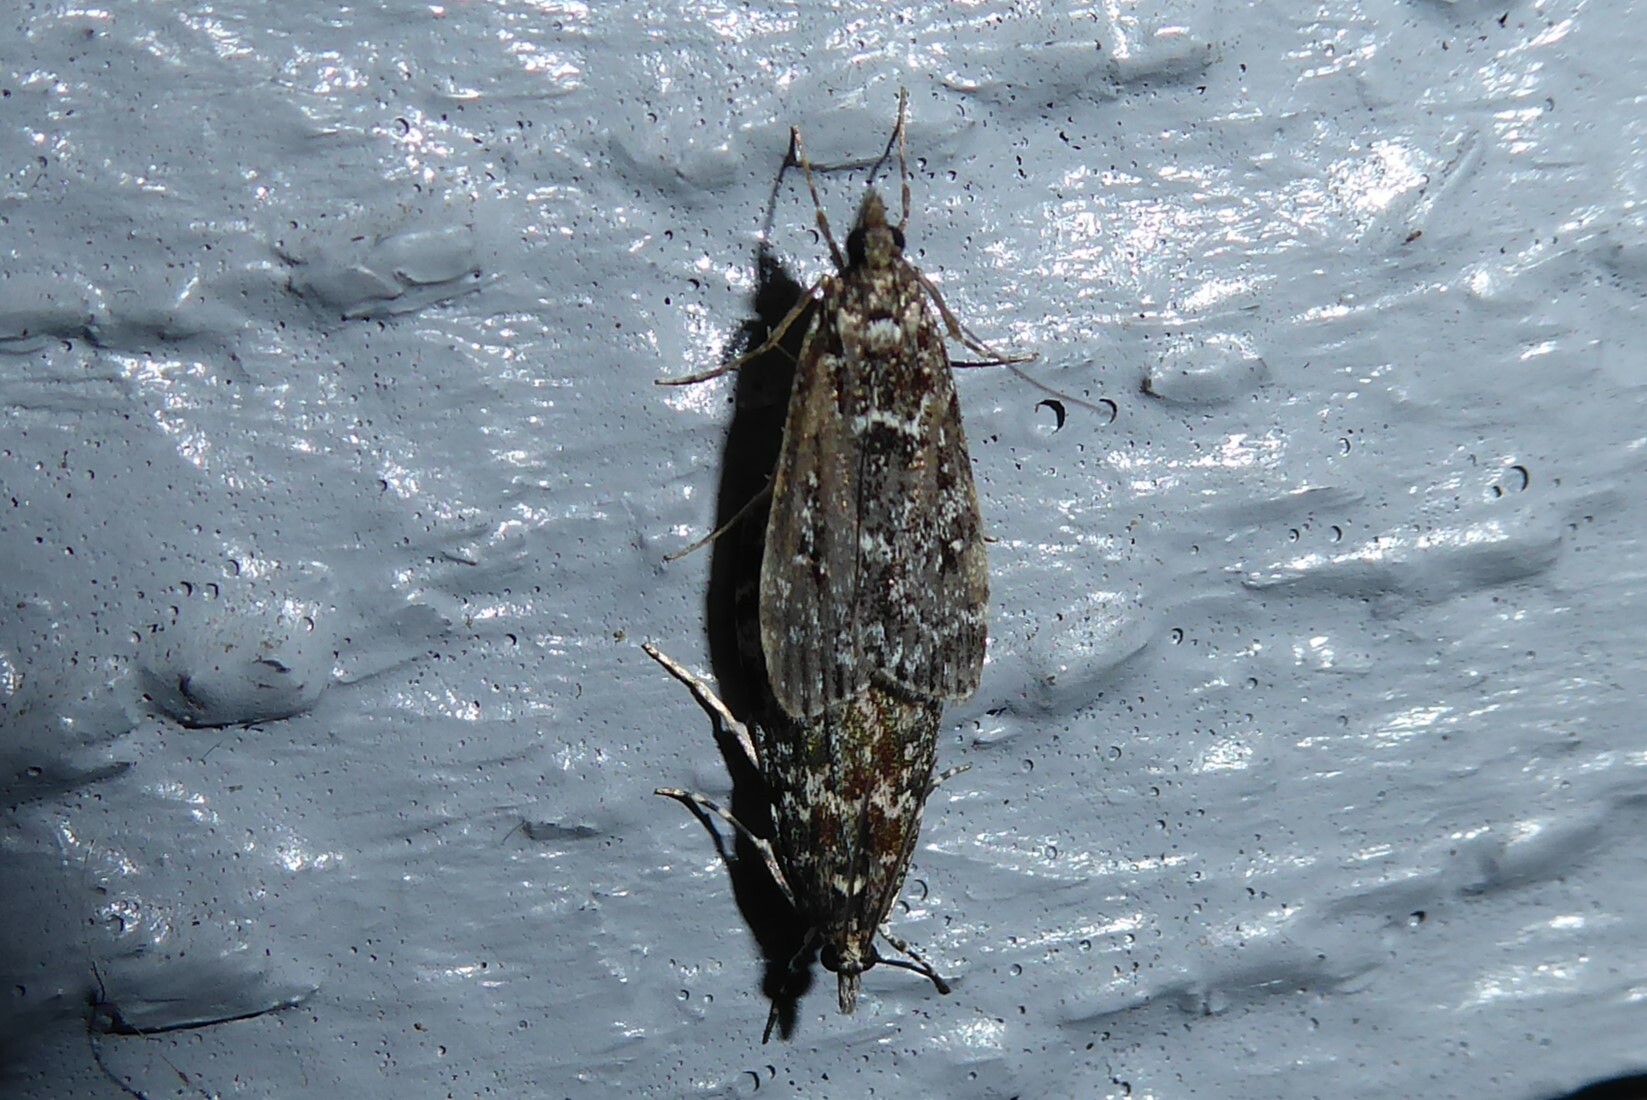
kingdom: Animalia
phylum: Arthropoda
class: Insecta
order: Lepidoptera
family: Crambidae
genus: Eudonia
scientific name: Eudonia philerga
